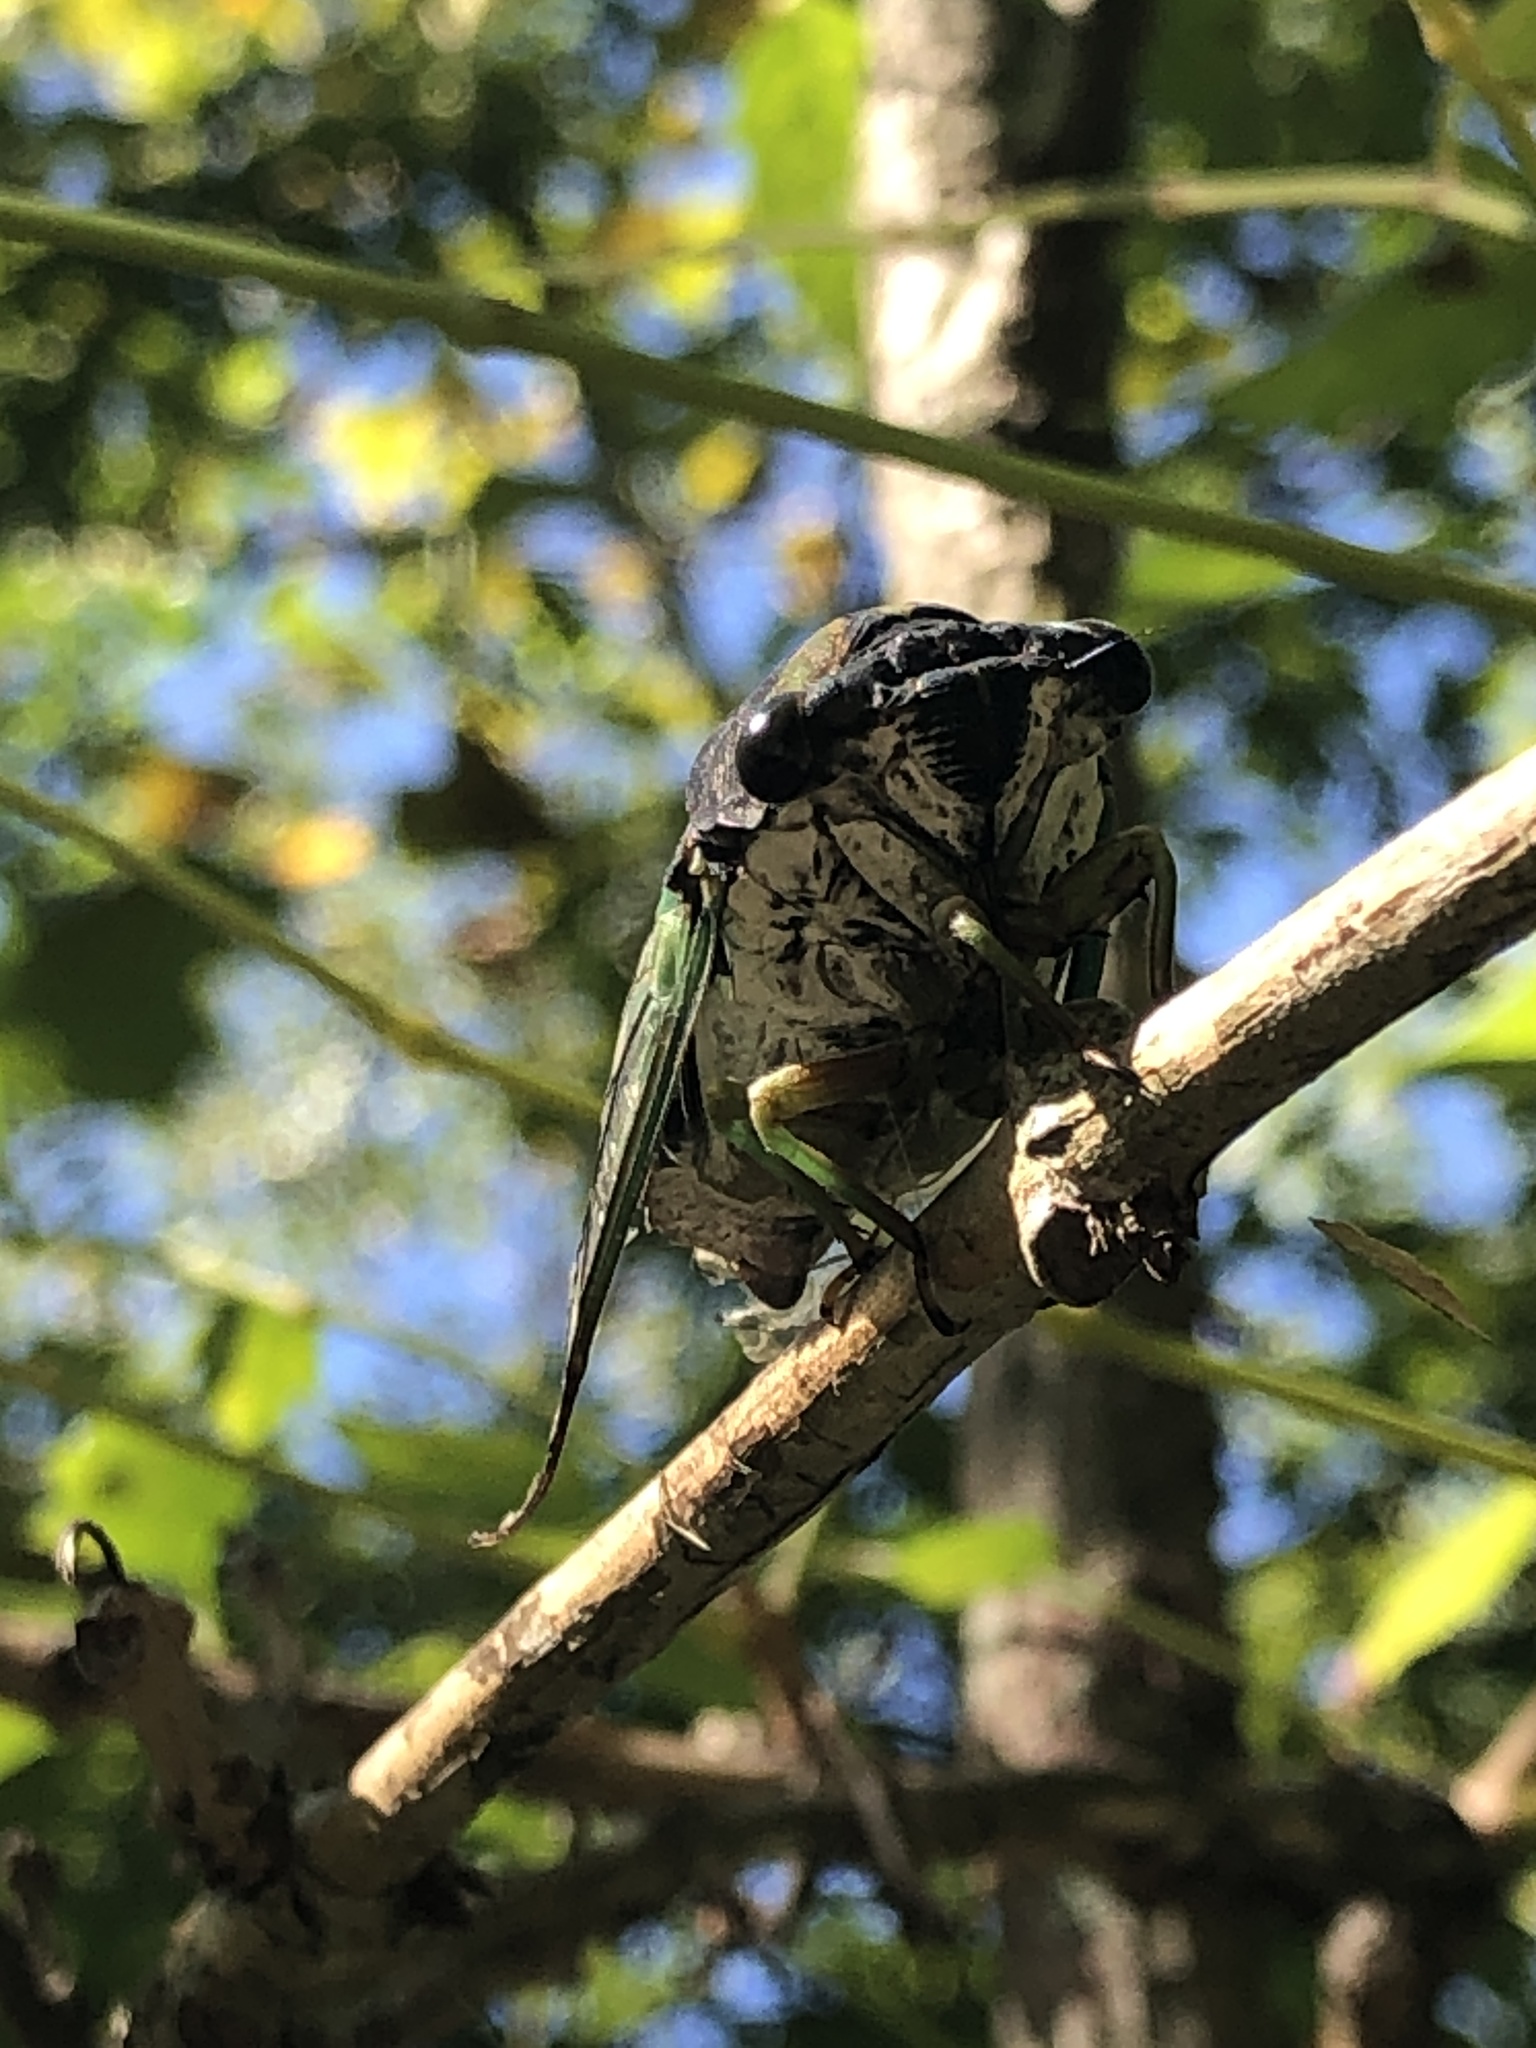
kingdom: Animalia
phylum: Arthropoda
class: Insecta
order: Hemiptera
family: Cicadidae
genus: Neotibicen
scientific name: Neotibicen tibicen
